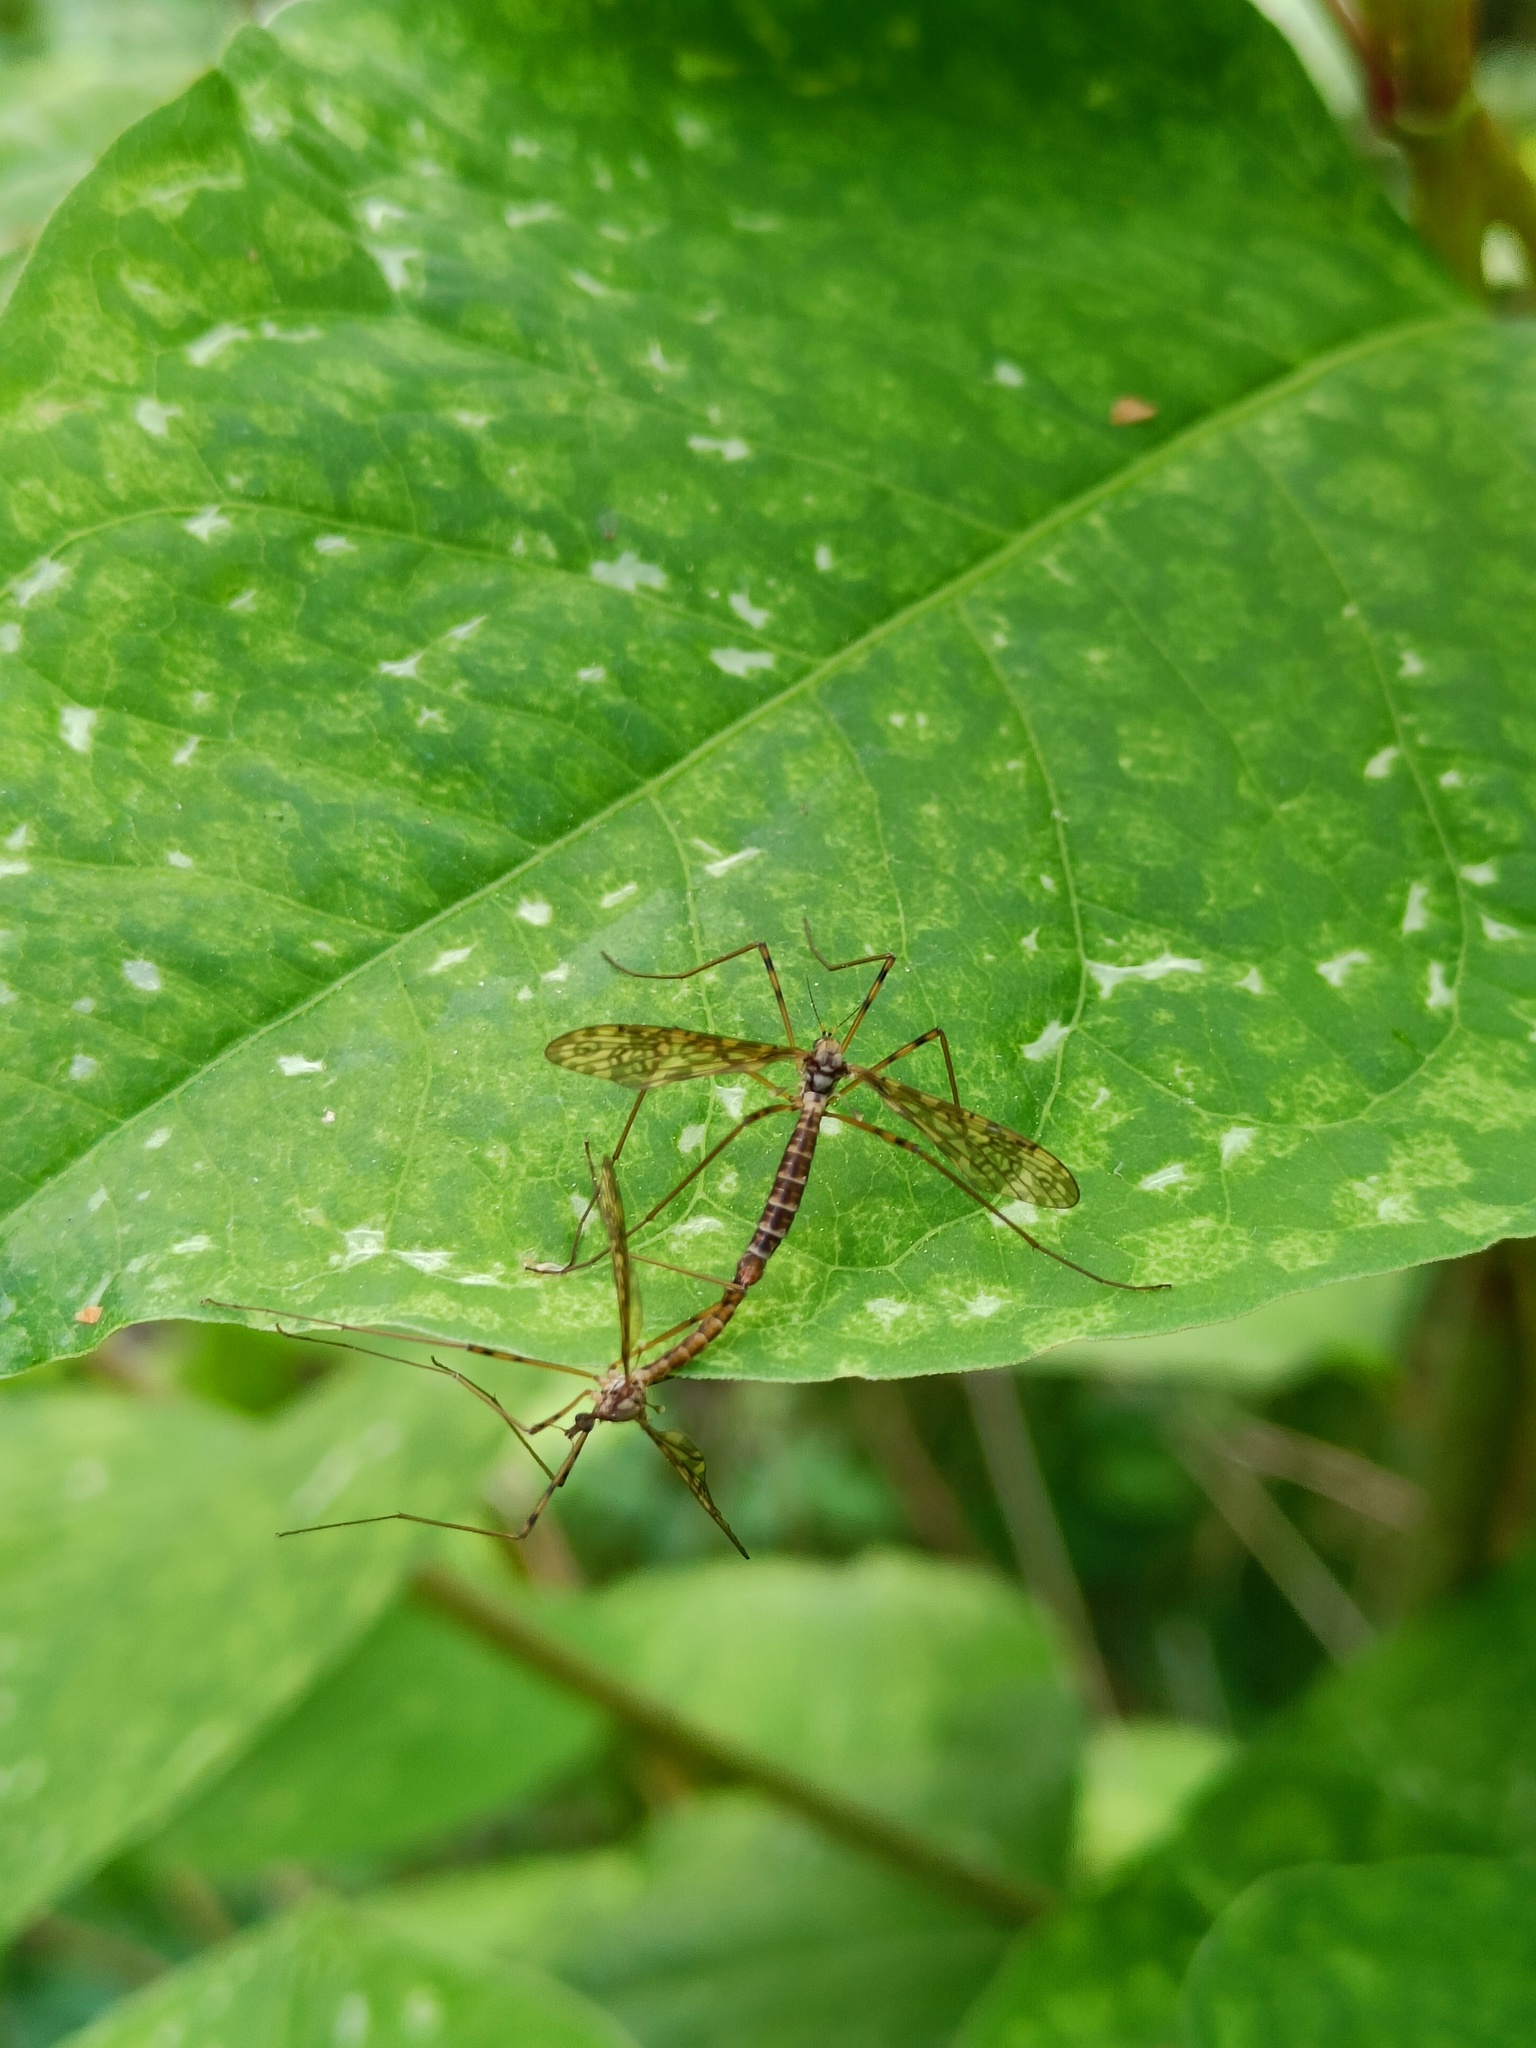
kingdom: Animalia
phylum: Arthropoda
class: Insecta
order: Diptera
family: Limoniidae
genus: Epiphragma
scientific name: Epiphragma ocellare
